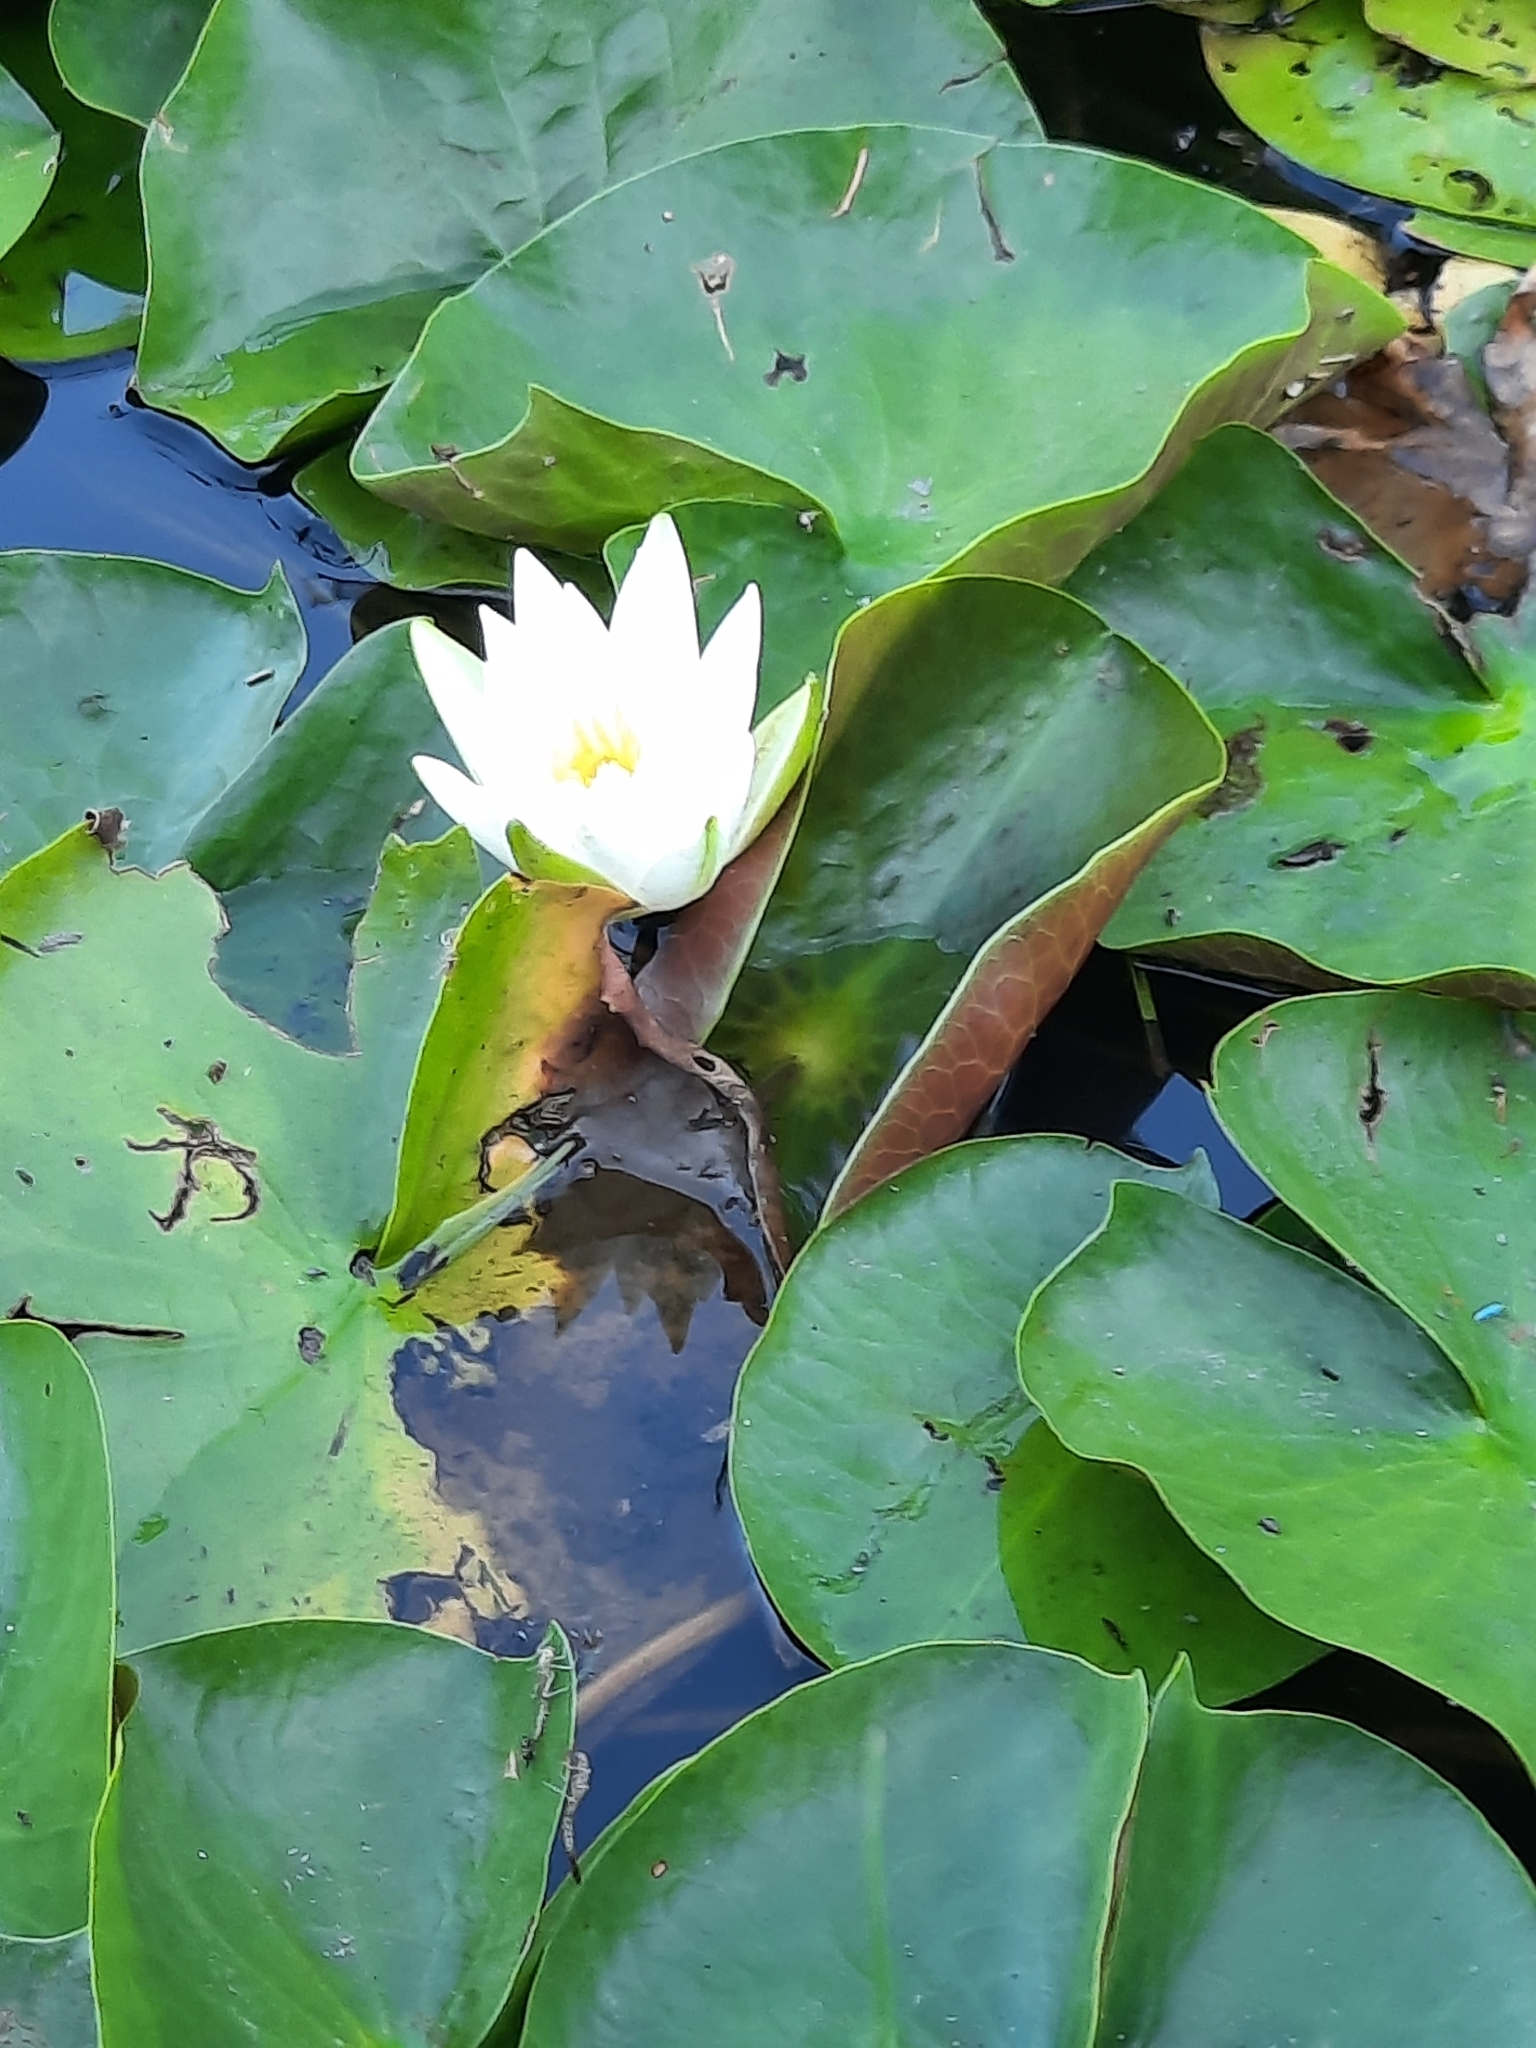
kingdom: Plantae
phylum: Tracheophyta
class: Magnoliopsida
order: Nymphaeales
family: Nymphaeaceae
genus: Nymphaea
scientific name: Nymphaea odorata
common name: Fragrant water-lily
